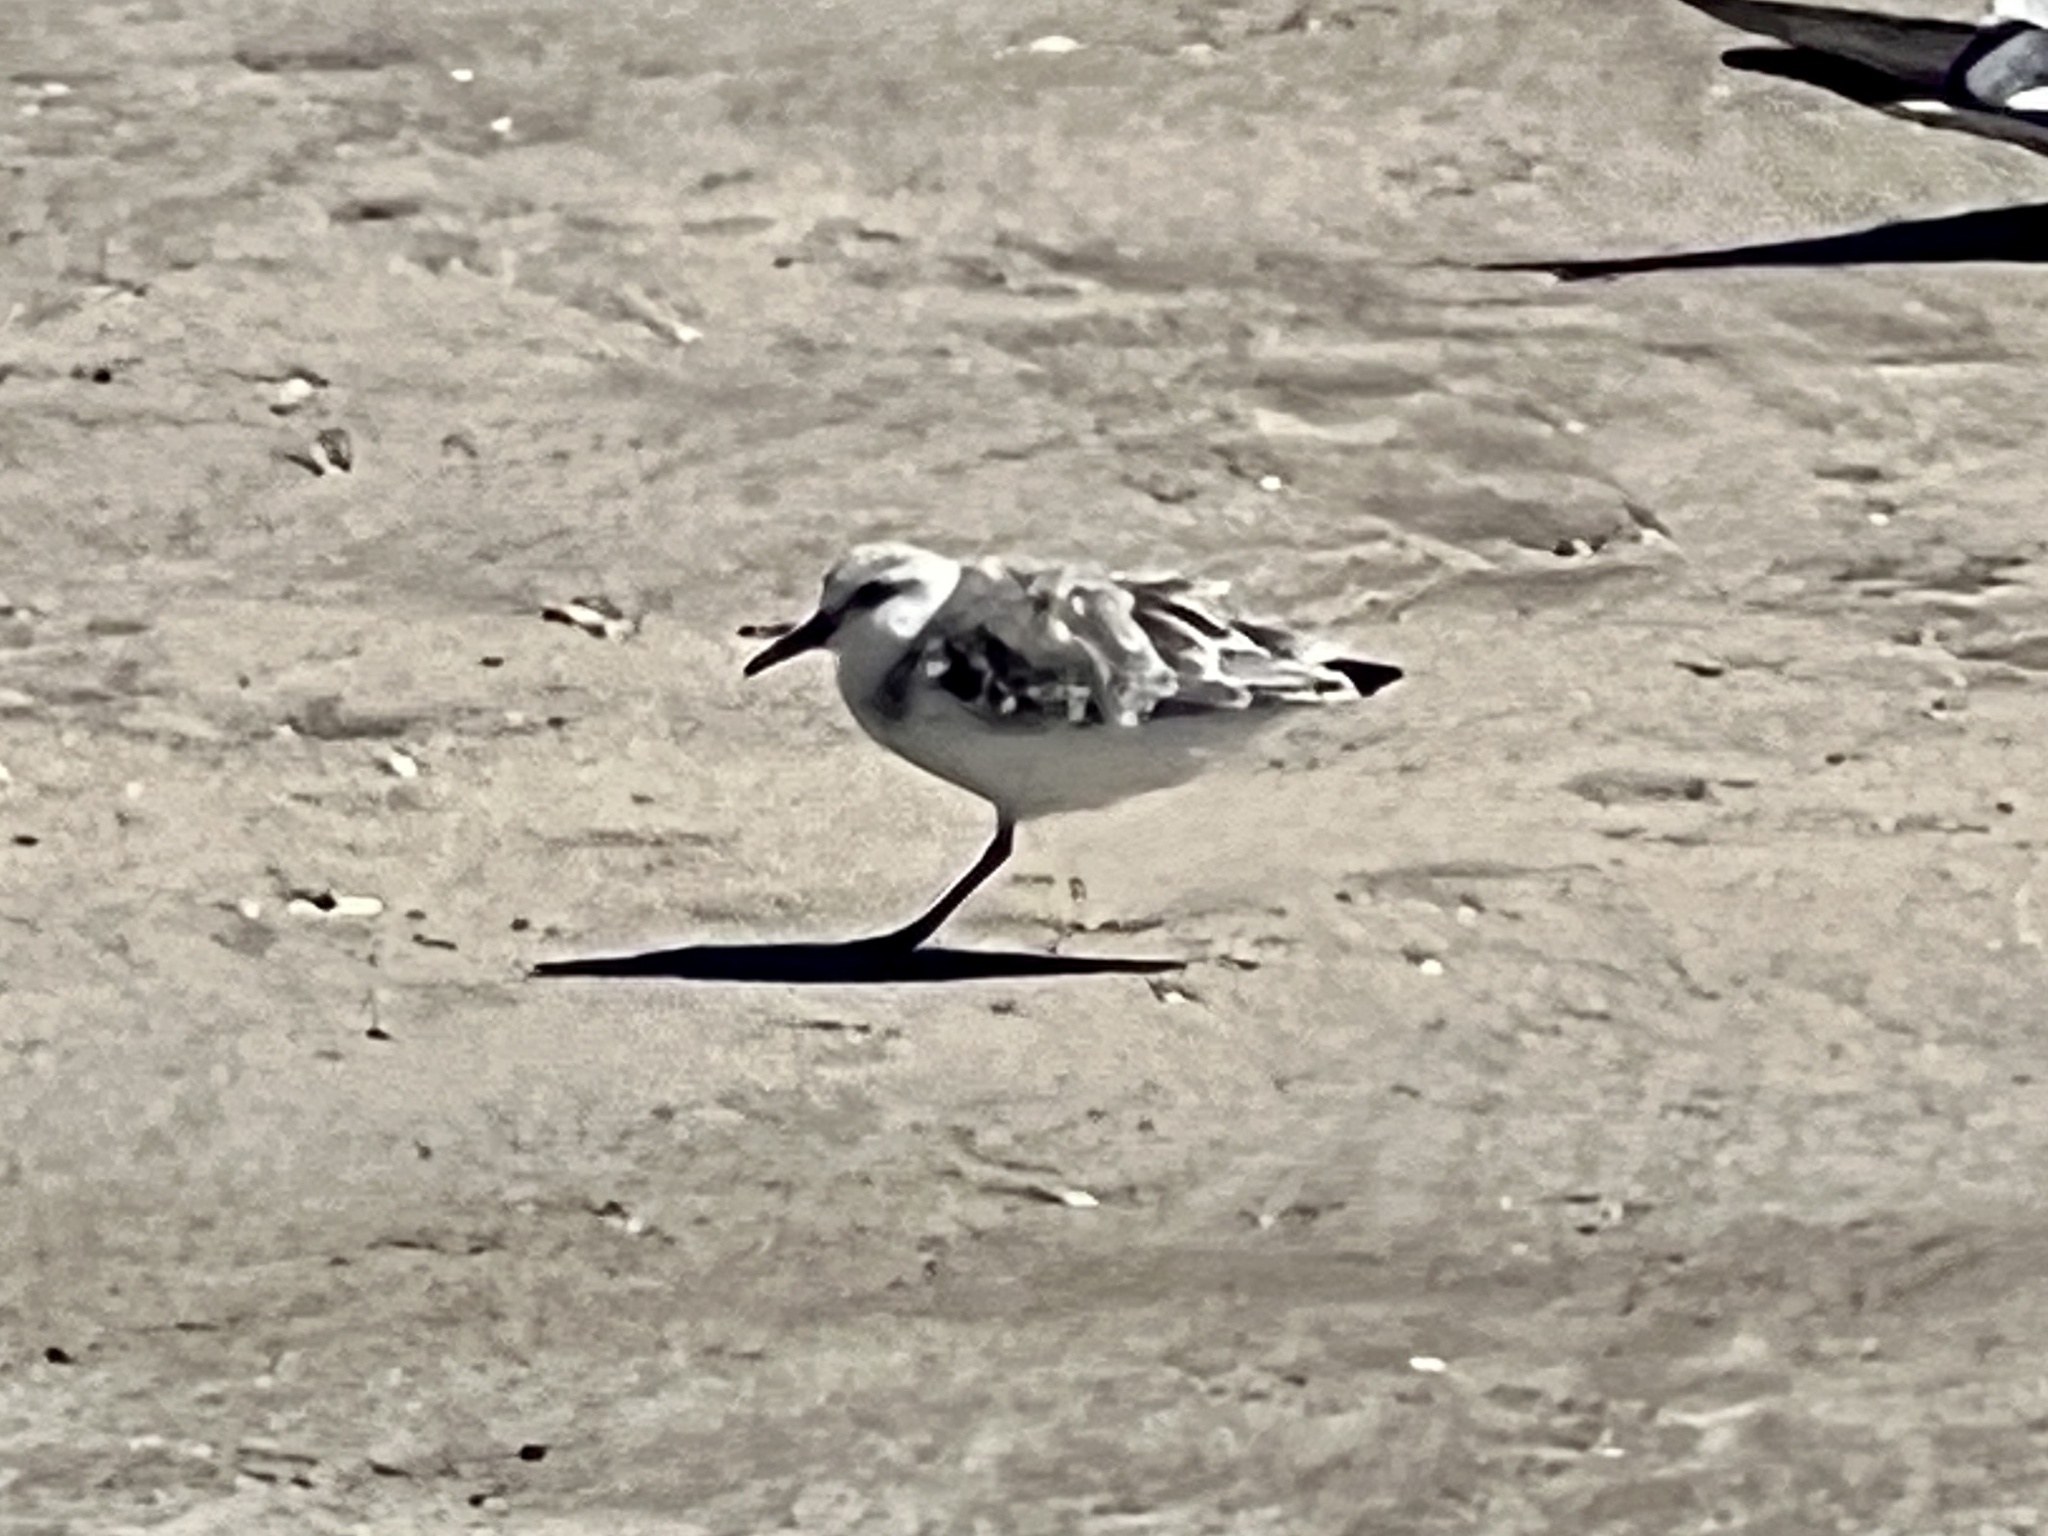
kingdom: Animalia
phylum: Chordata
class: Aves
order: Charadriiformes
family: Scolopacidae
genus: Calidris
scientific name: Calidris alba
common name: Sanderling
